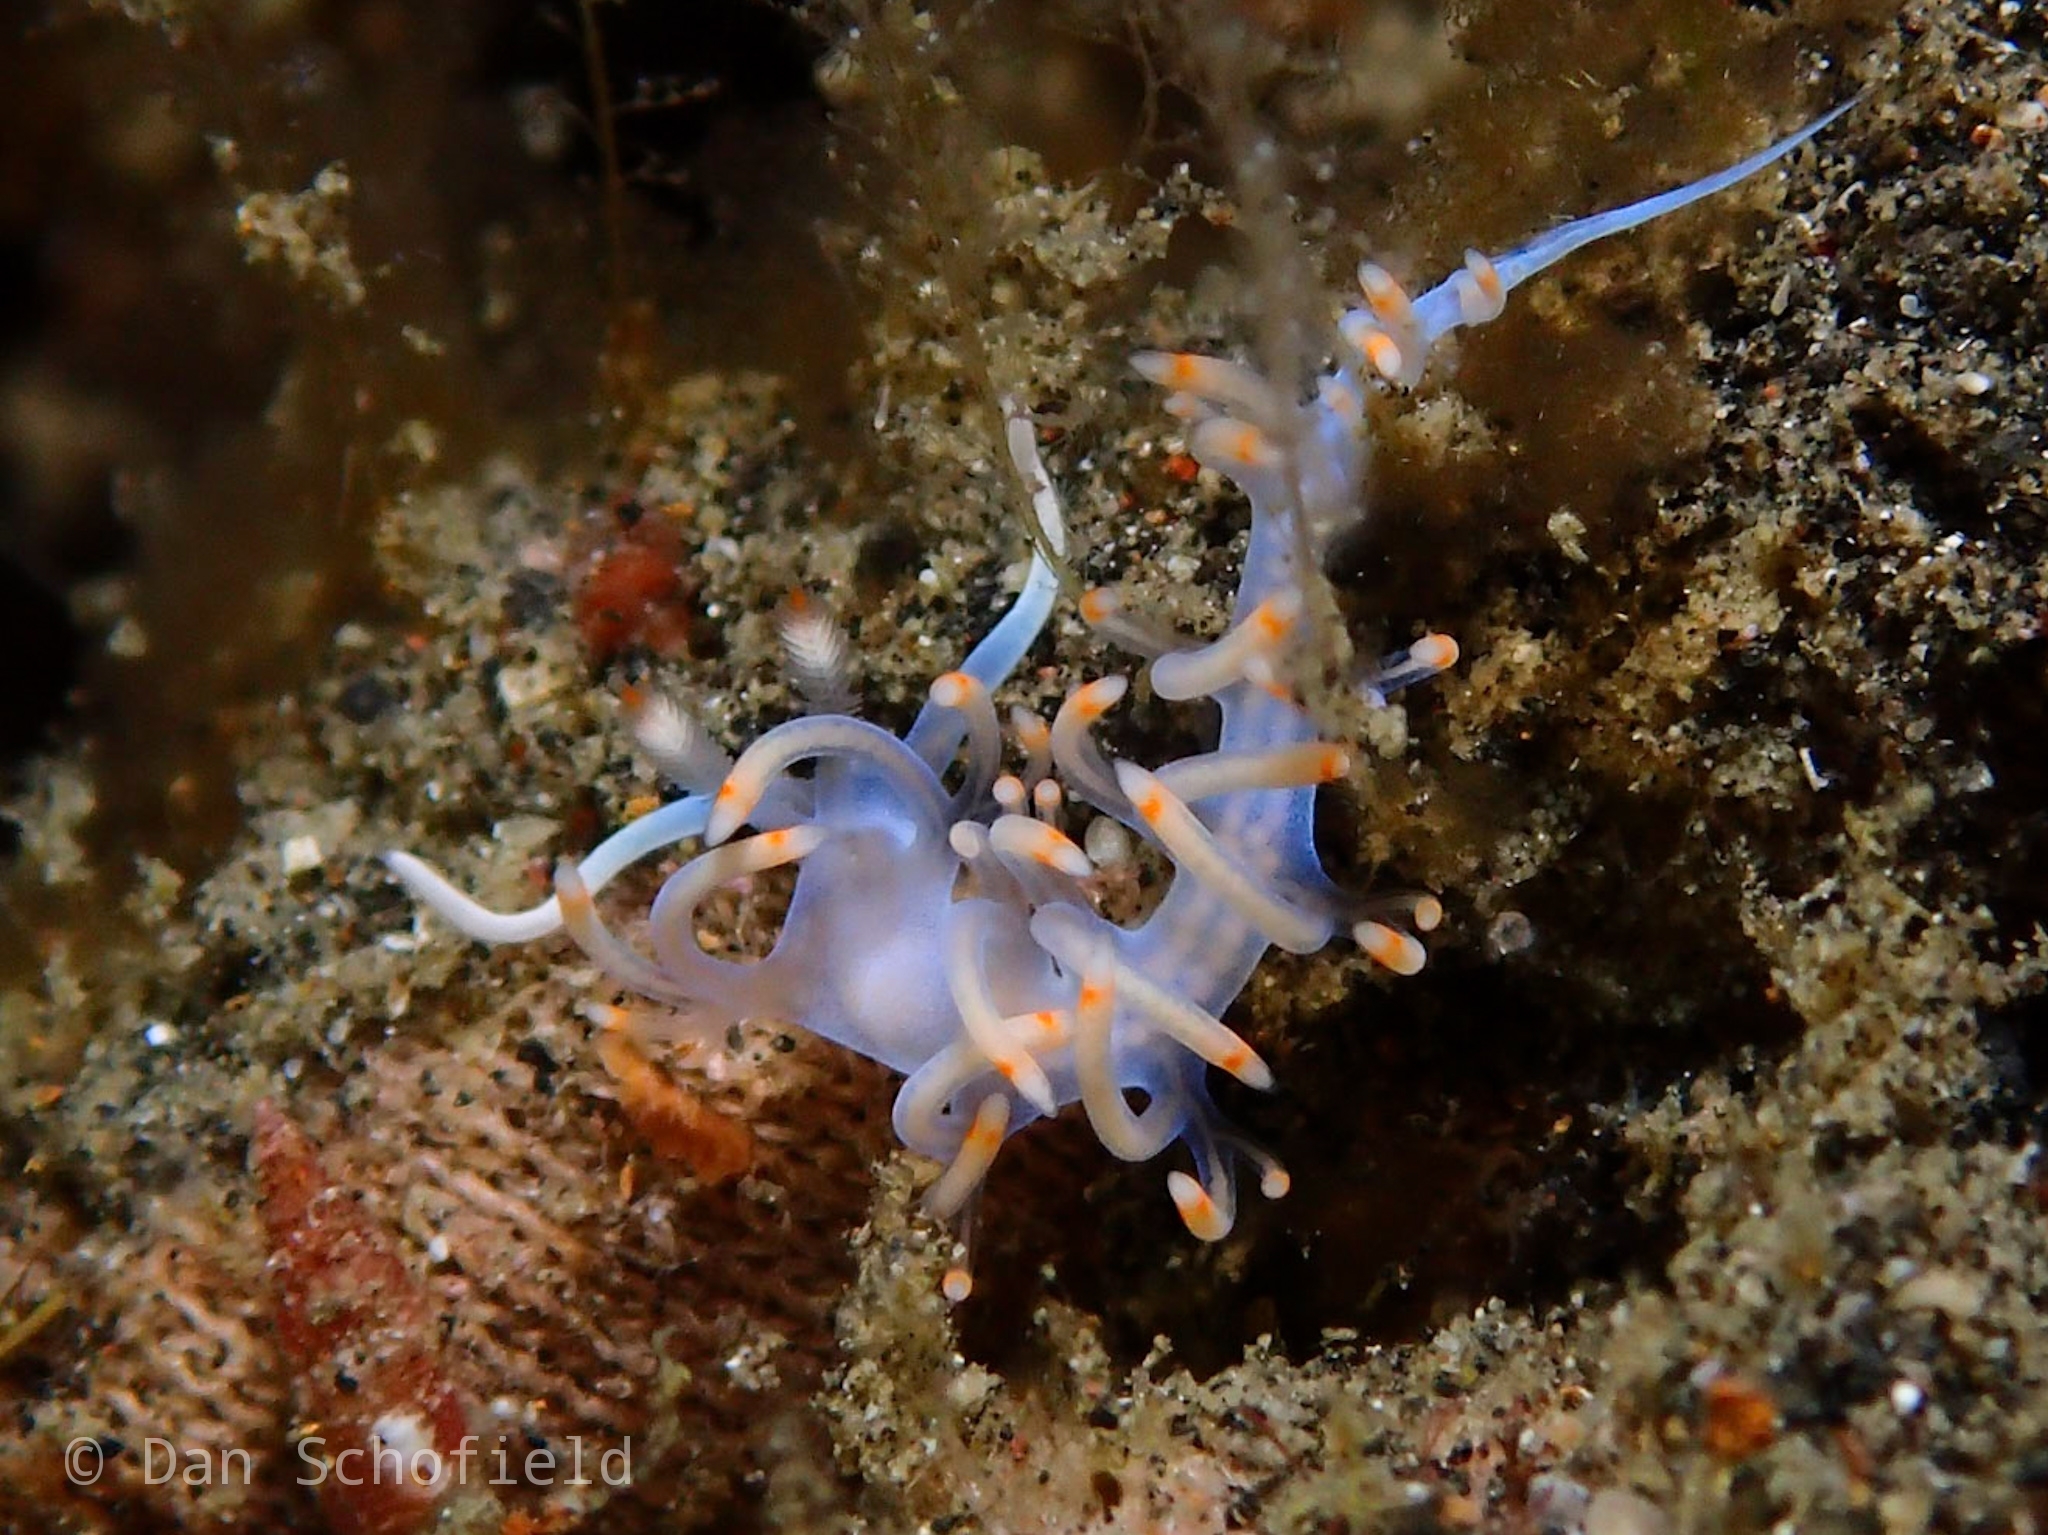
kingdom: Animalia
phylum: Mollusca
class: Gastropoda
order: Nudibranchia
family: Samlidae
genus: Samla
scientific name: Samla bicolor
